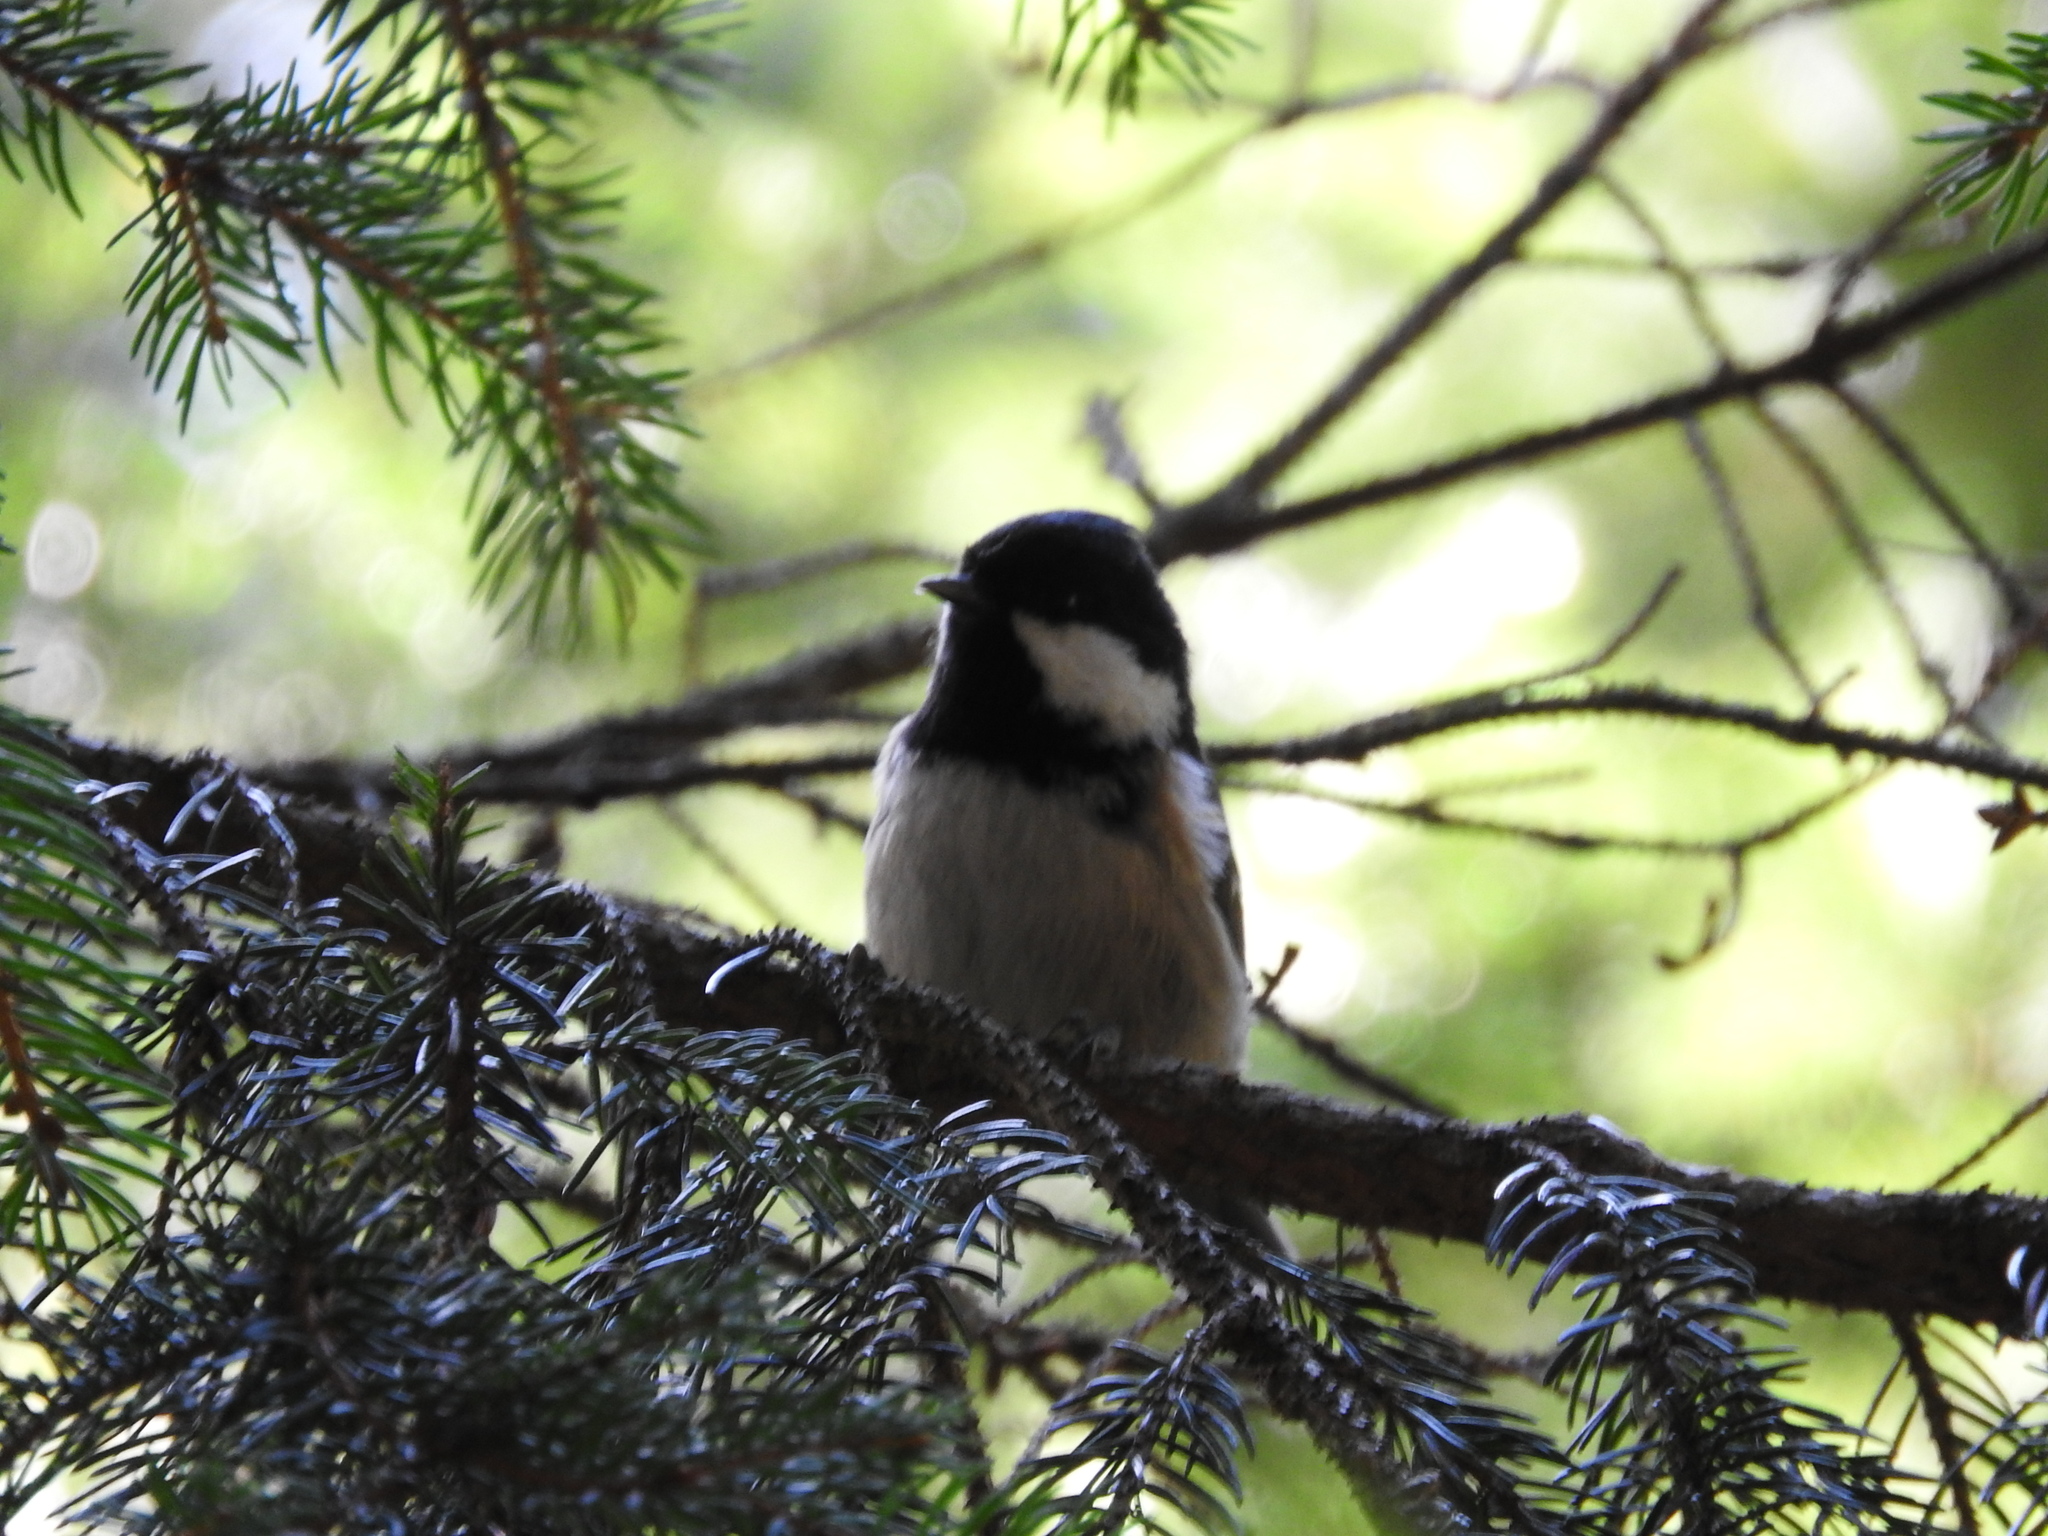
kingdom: Animalia
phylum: Chordata
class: Aves
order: Passeriformes
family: Paridae
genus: Periparus
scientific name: Periparus ater
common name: Coal tit
